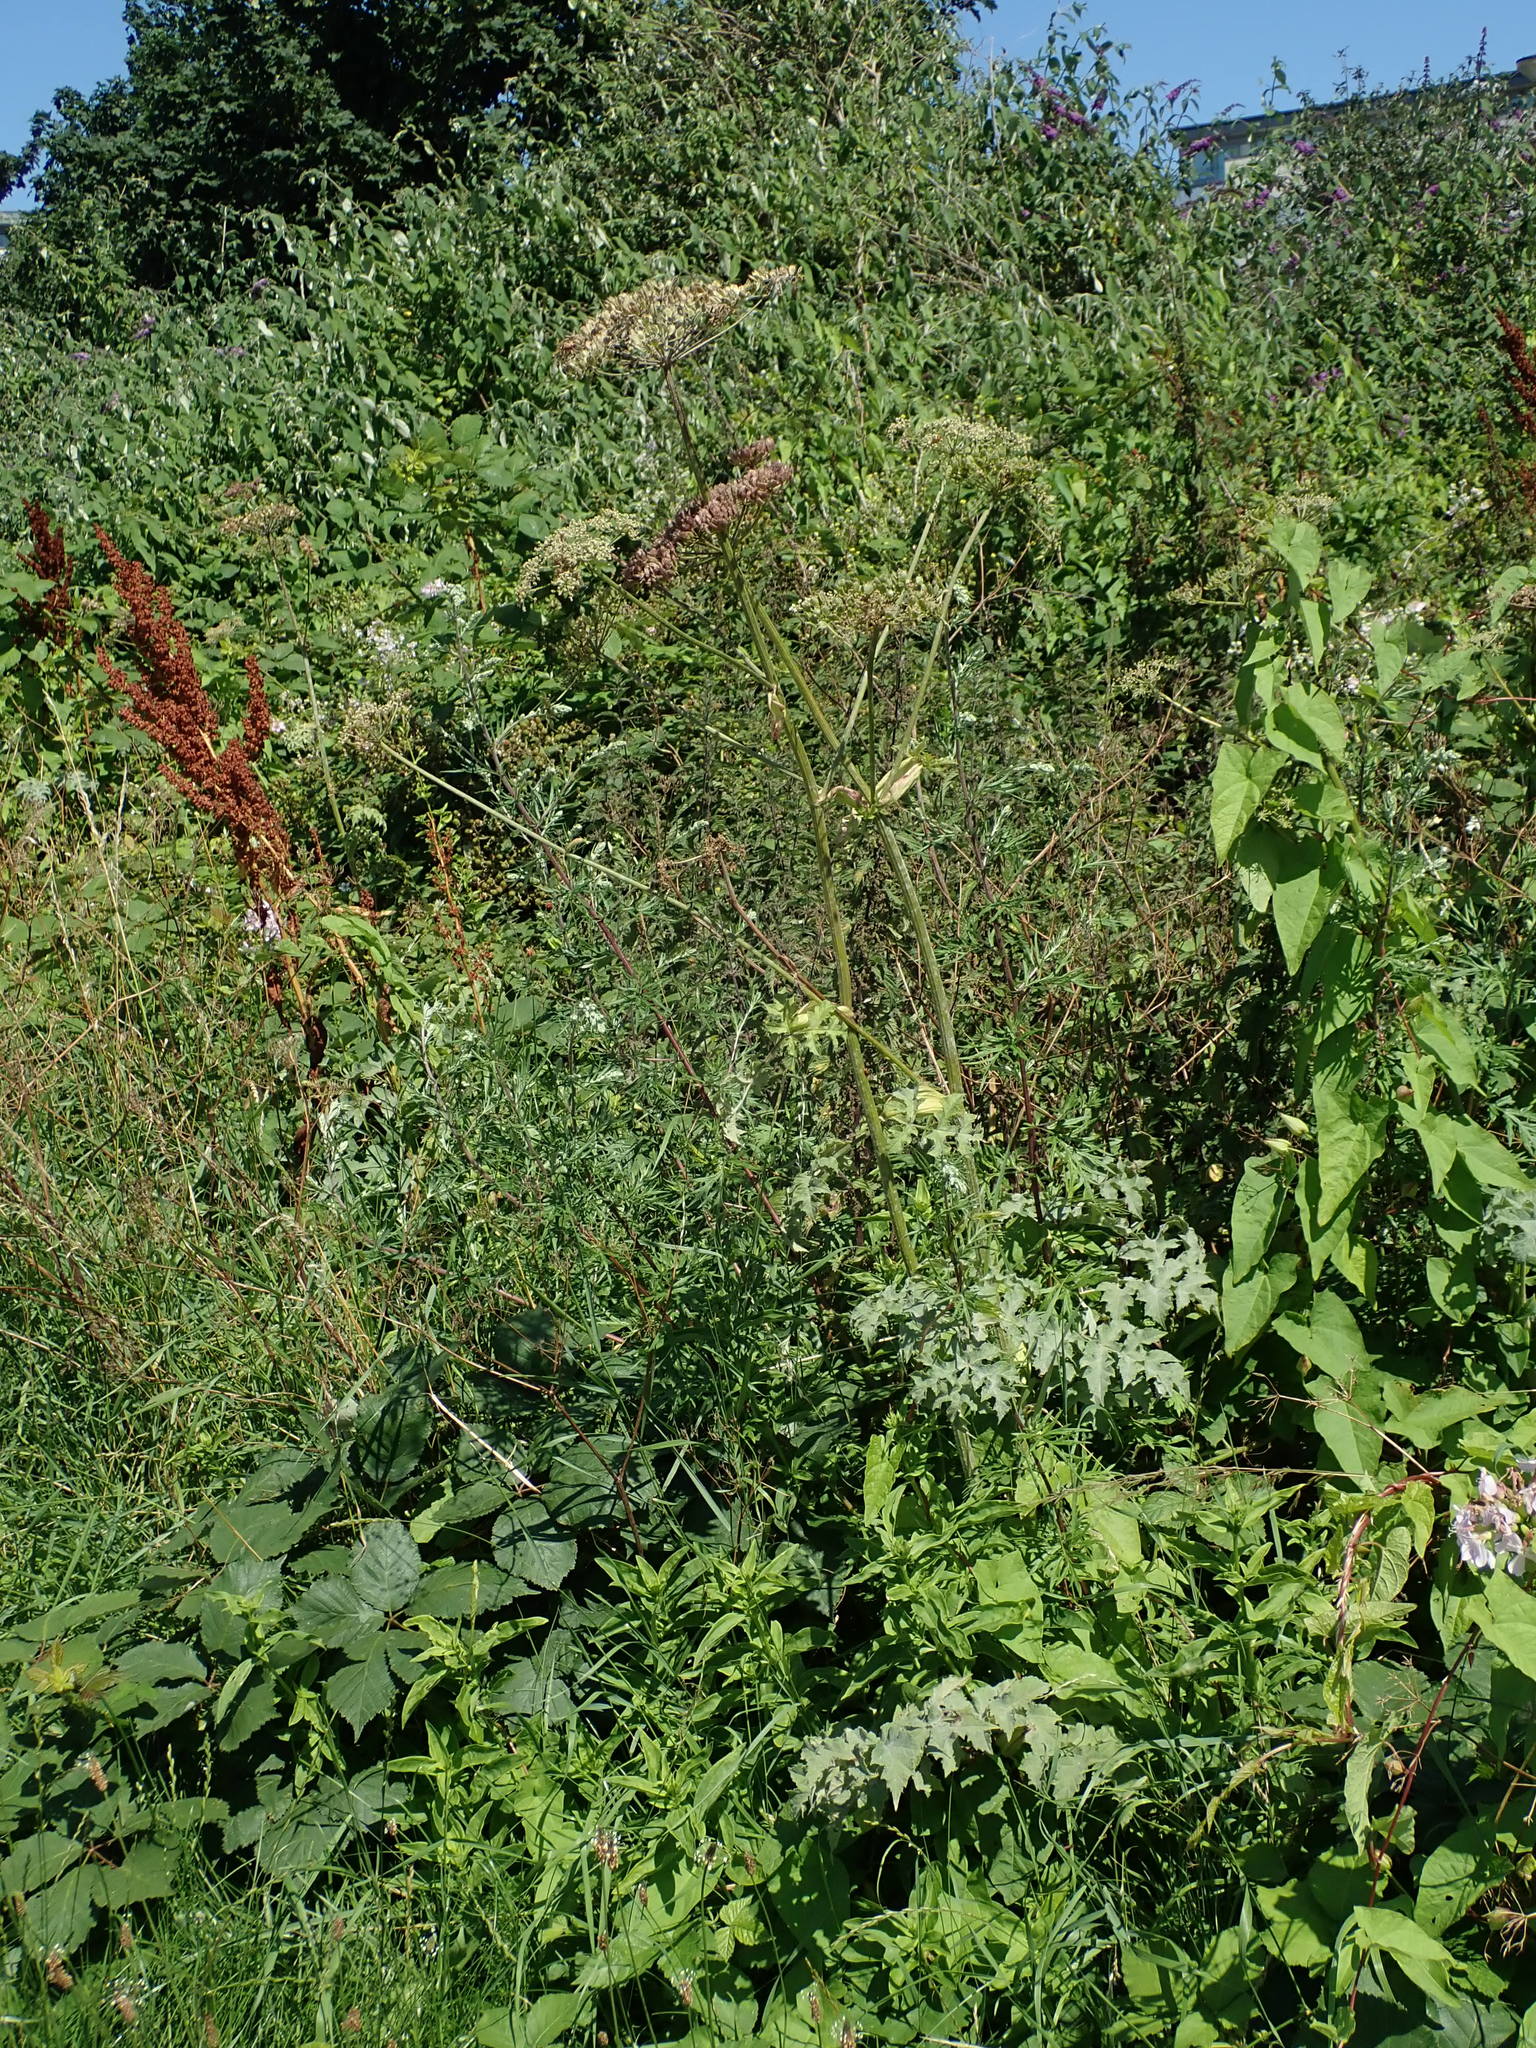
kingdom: Plantae
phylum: Tracheophyta
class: Magnoliopsida
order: Apiales
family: Apiaceae
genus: Heracleum
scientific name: Heracleum sphondylium
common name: Hogweed
